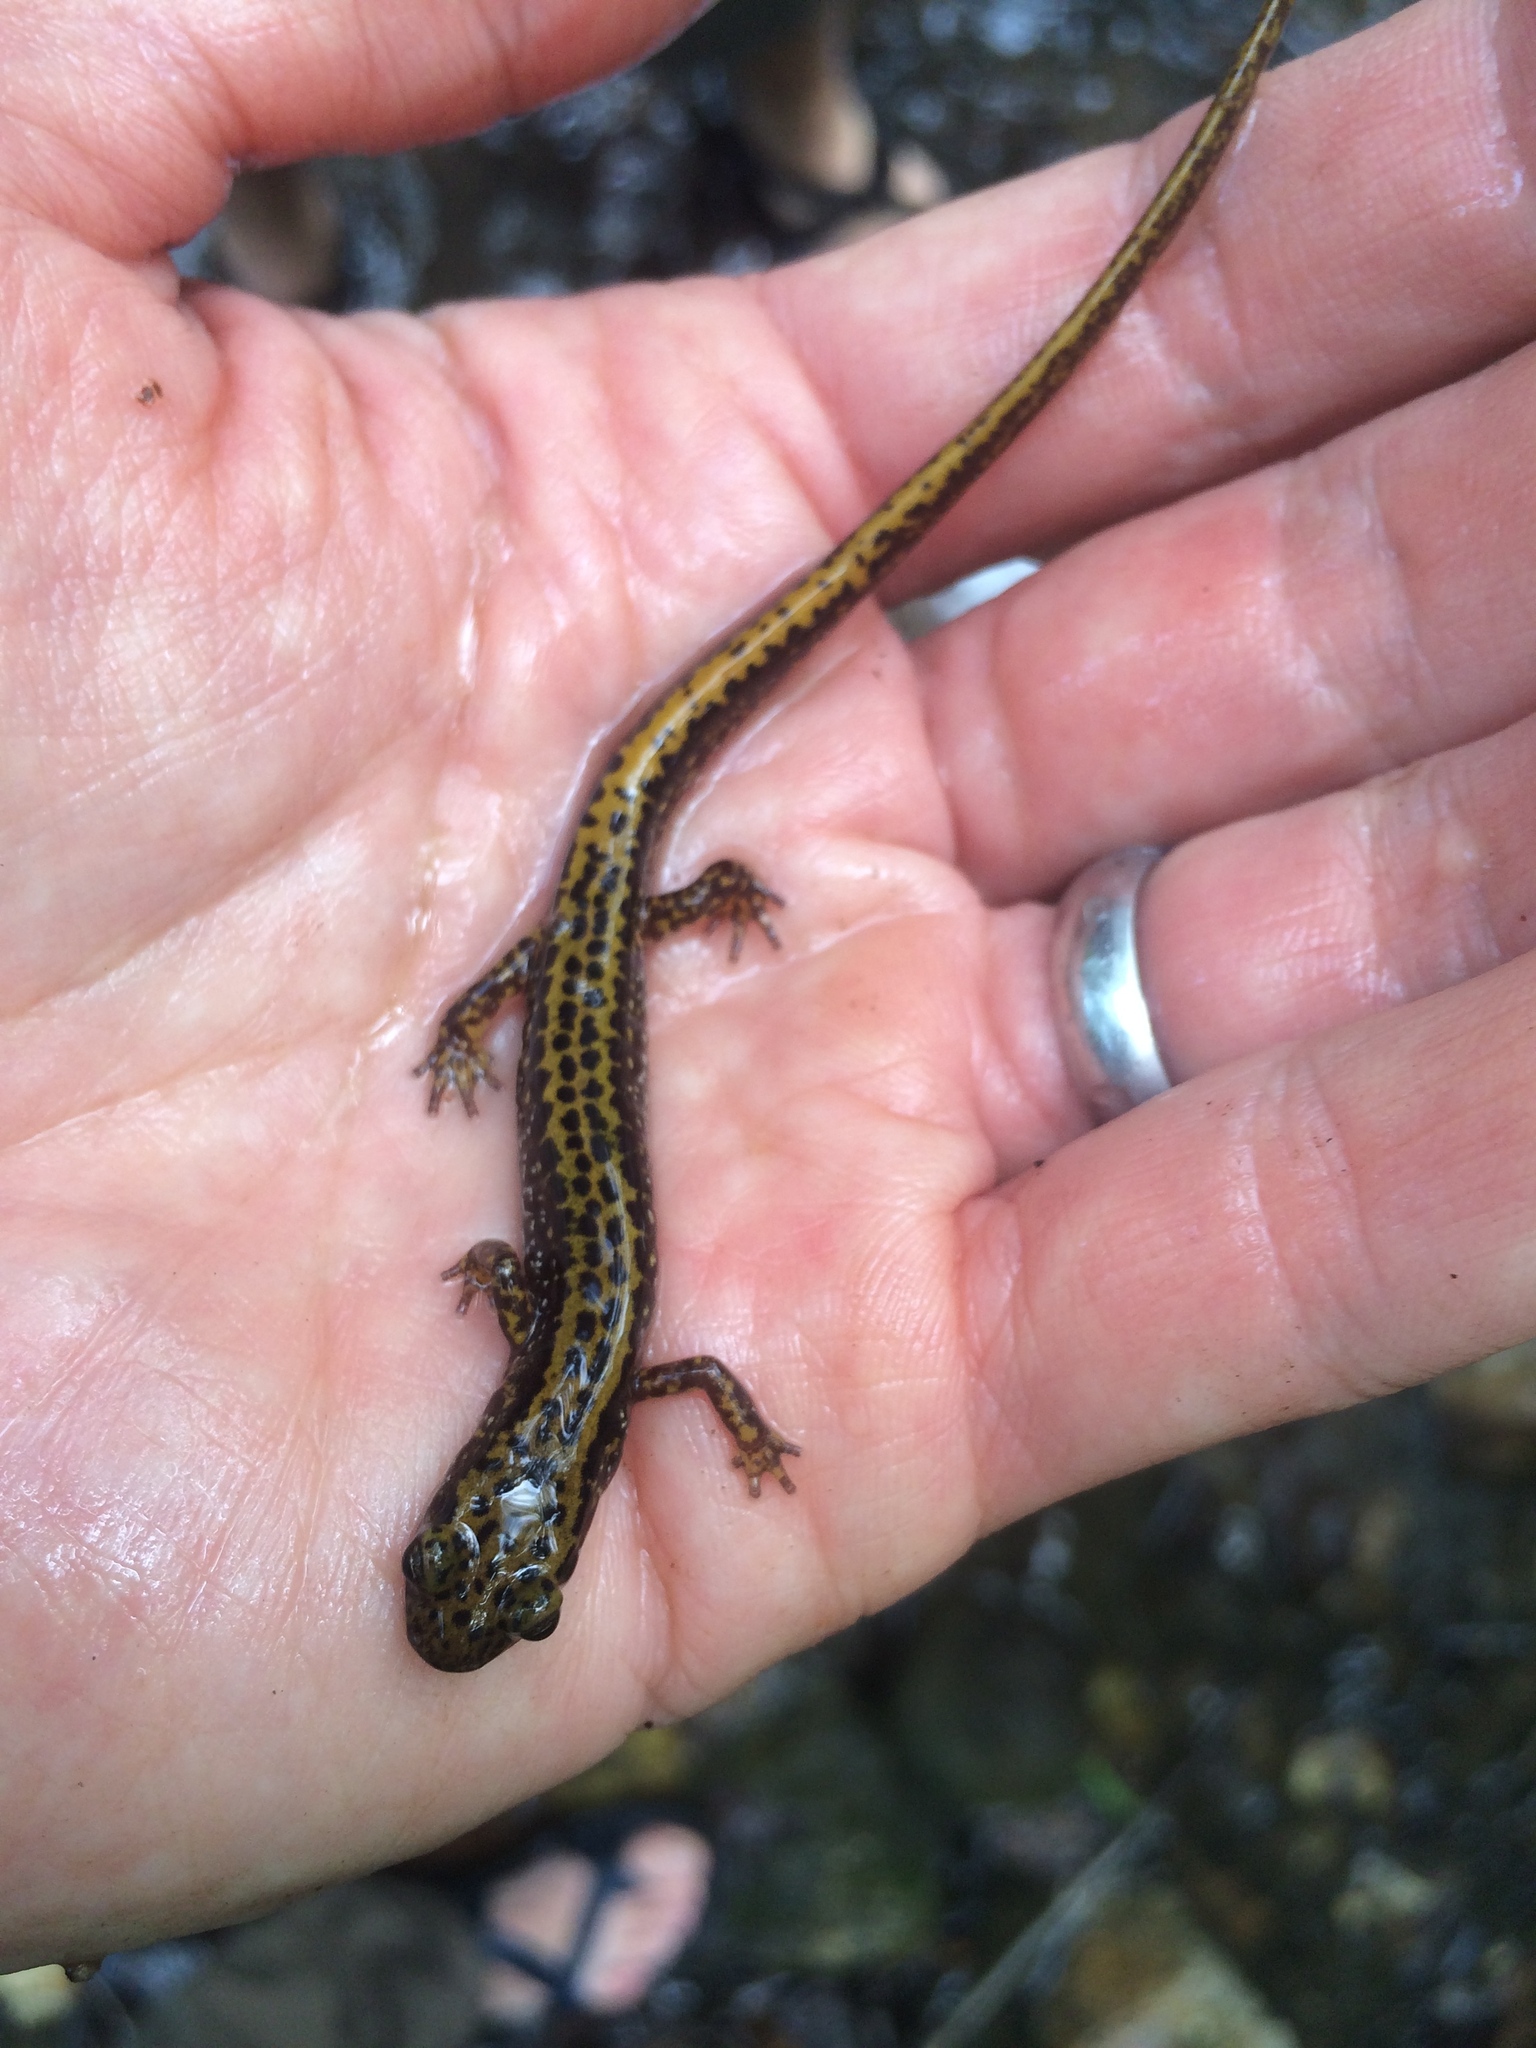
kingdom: Animalia
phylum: Chordata
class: Amphibia
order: Caudata
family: Plethodontidae
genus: Eurycea
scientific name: Eurycea longicauda
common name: Long-tailed salamander
